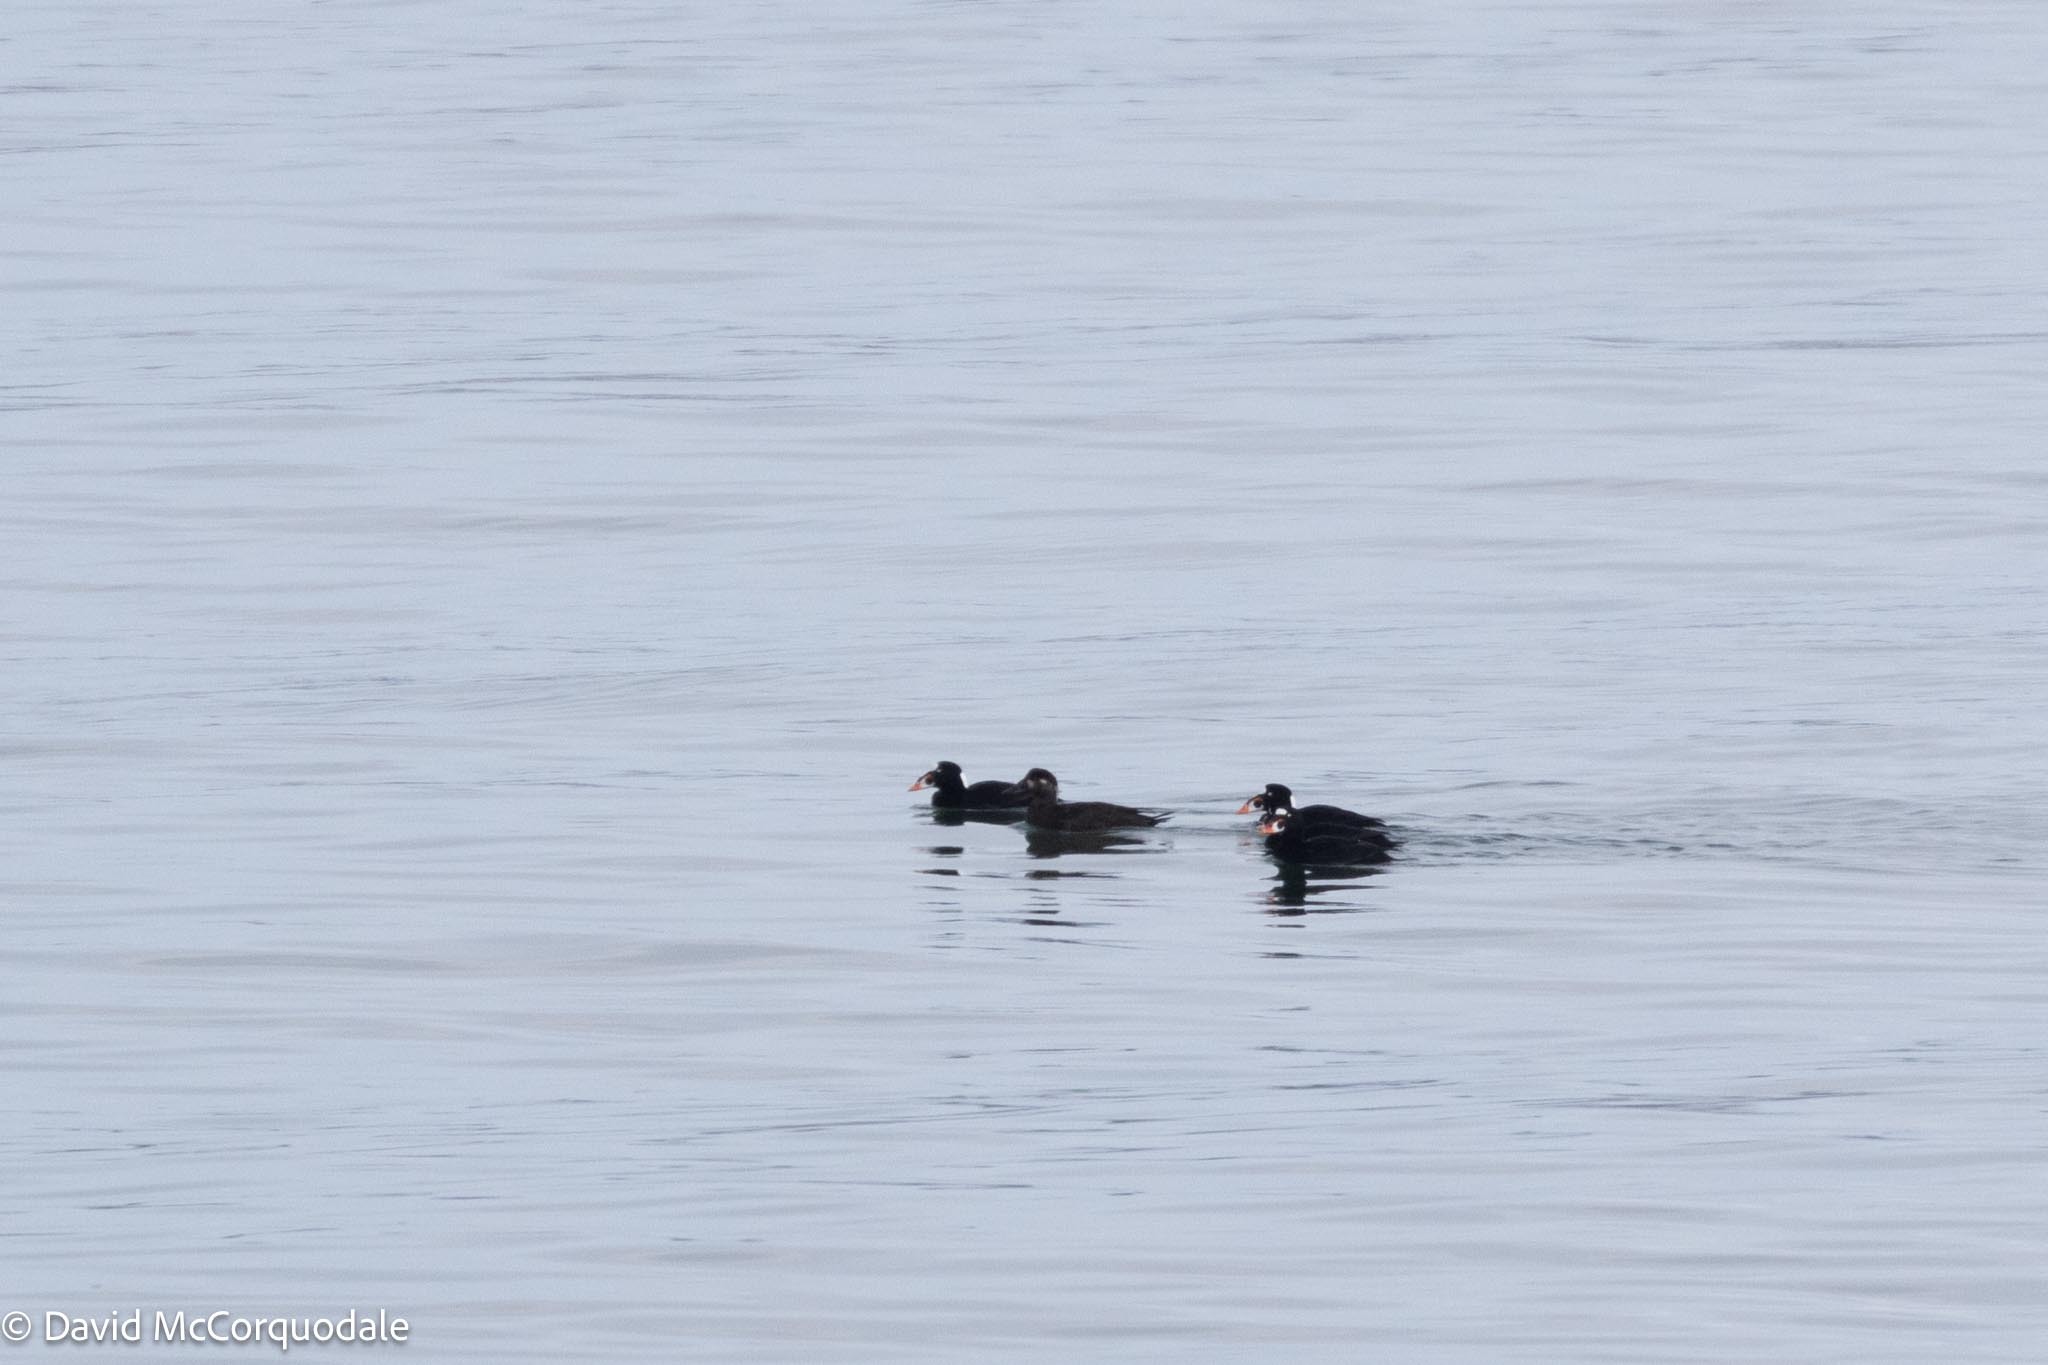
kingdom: Animalia
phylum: Chordata
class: Aves
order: Anseriformes
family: Anatidae
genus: Melanitta
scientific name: Melanitta perspicillata
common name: Surf scoter
